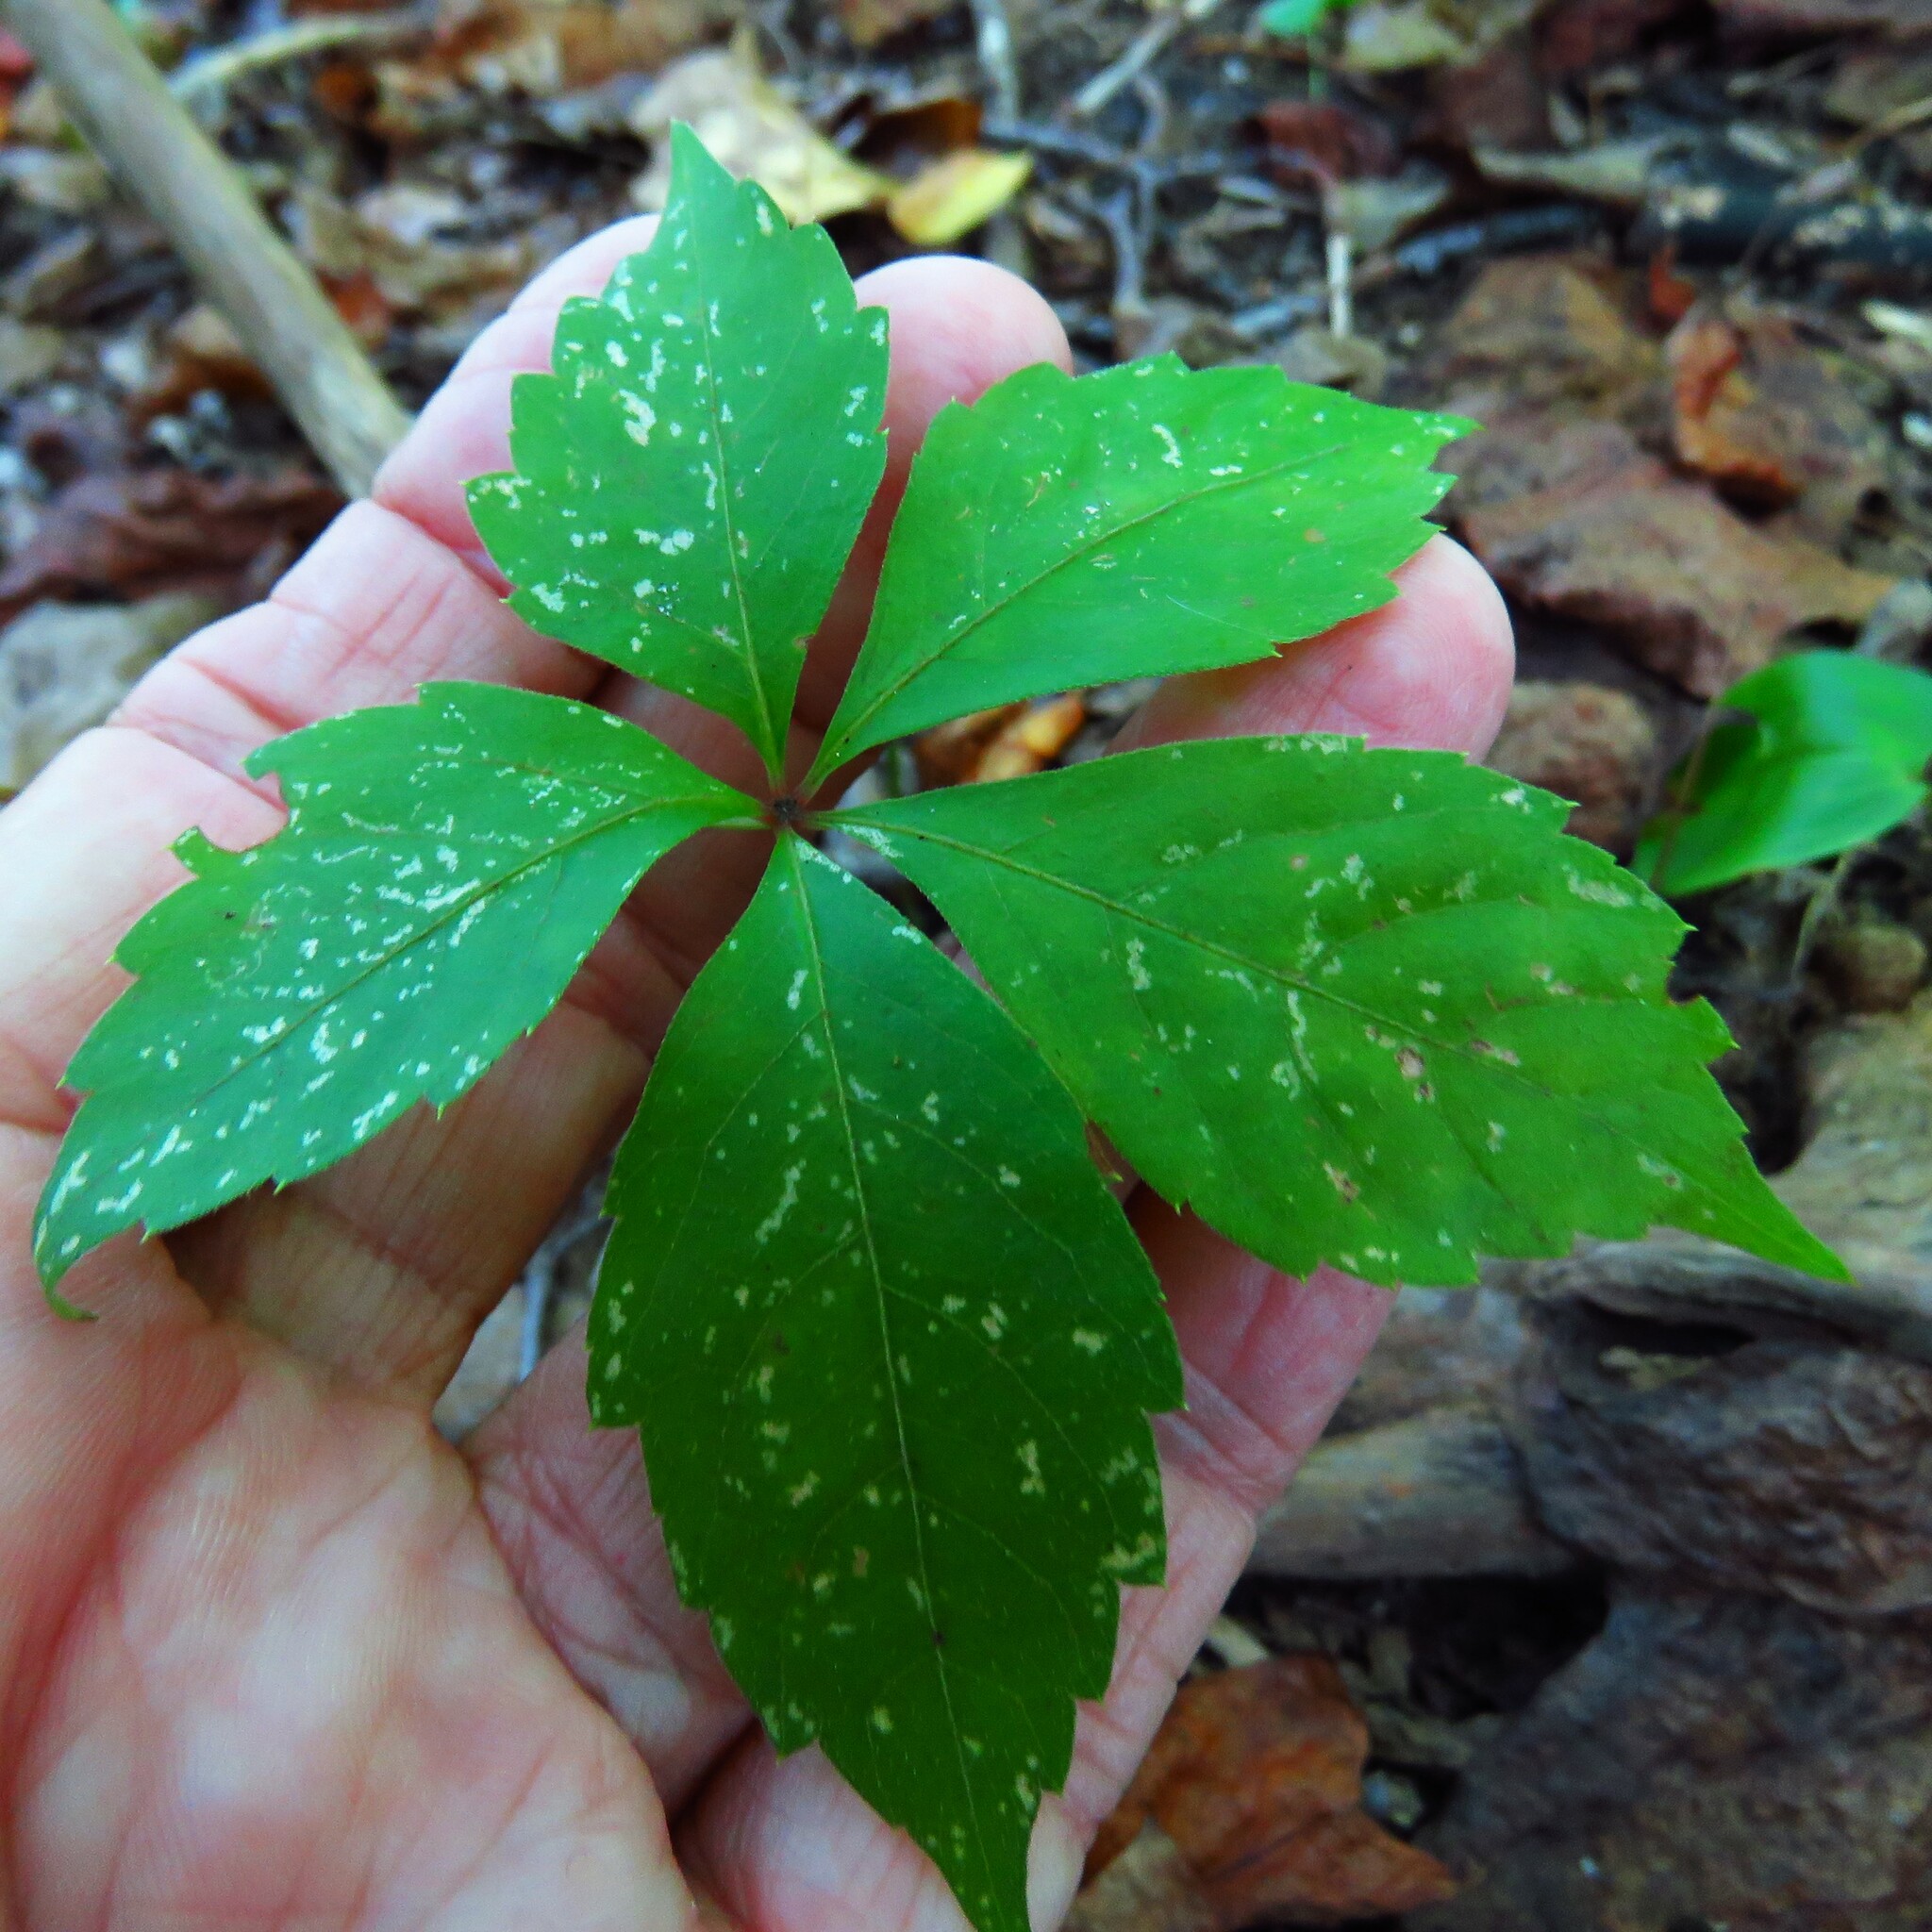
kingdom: Plantae
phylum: Tracheophyta
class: Magnoliopsida
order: Vitales
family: Vitaceae
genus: Parthenocissus
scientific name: Parthenocissus quinquefolia
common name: Virginia-creeper
